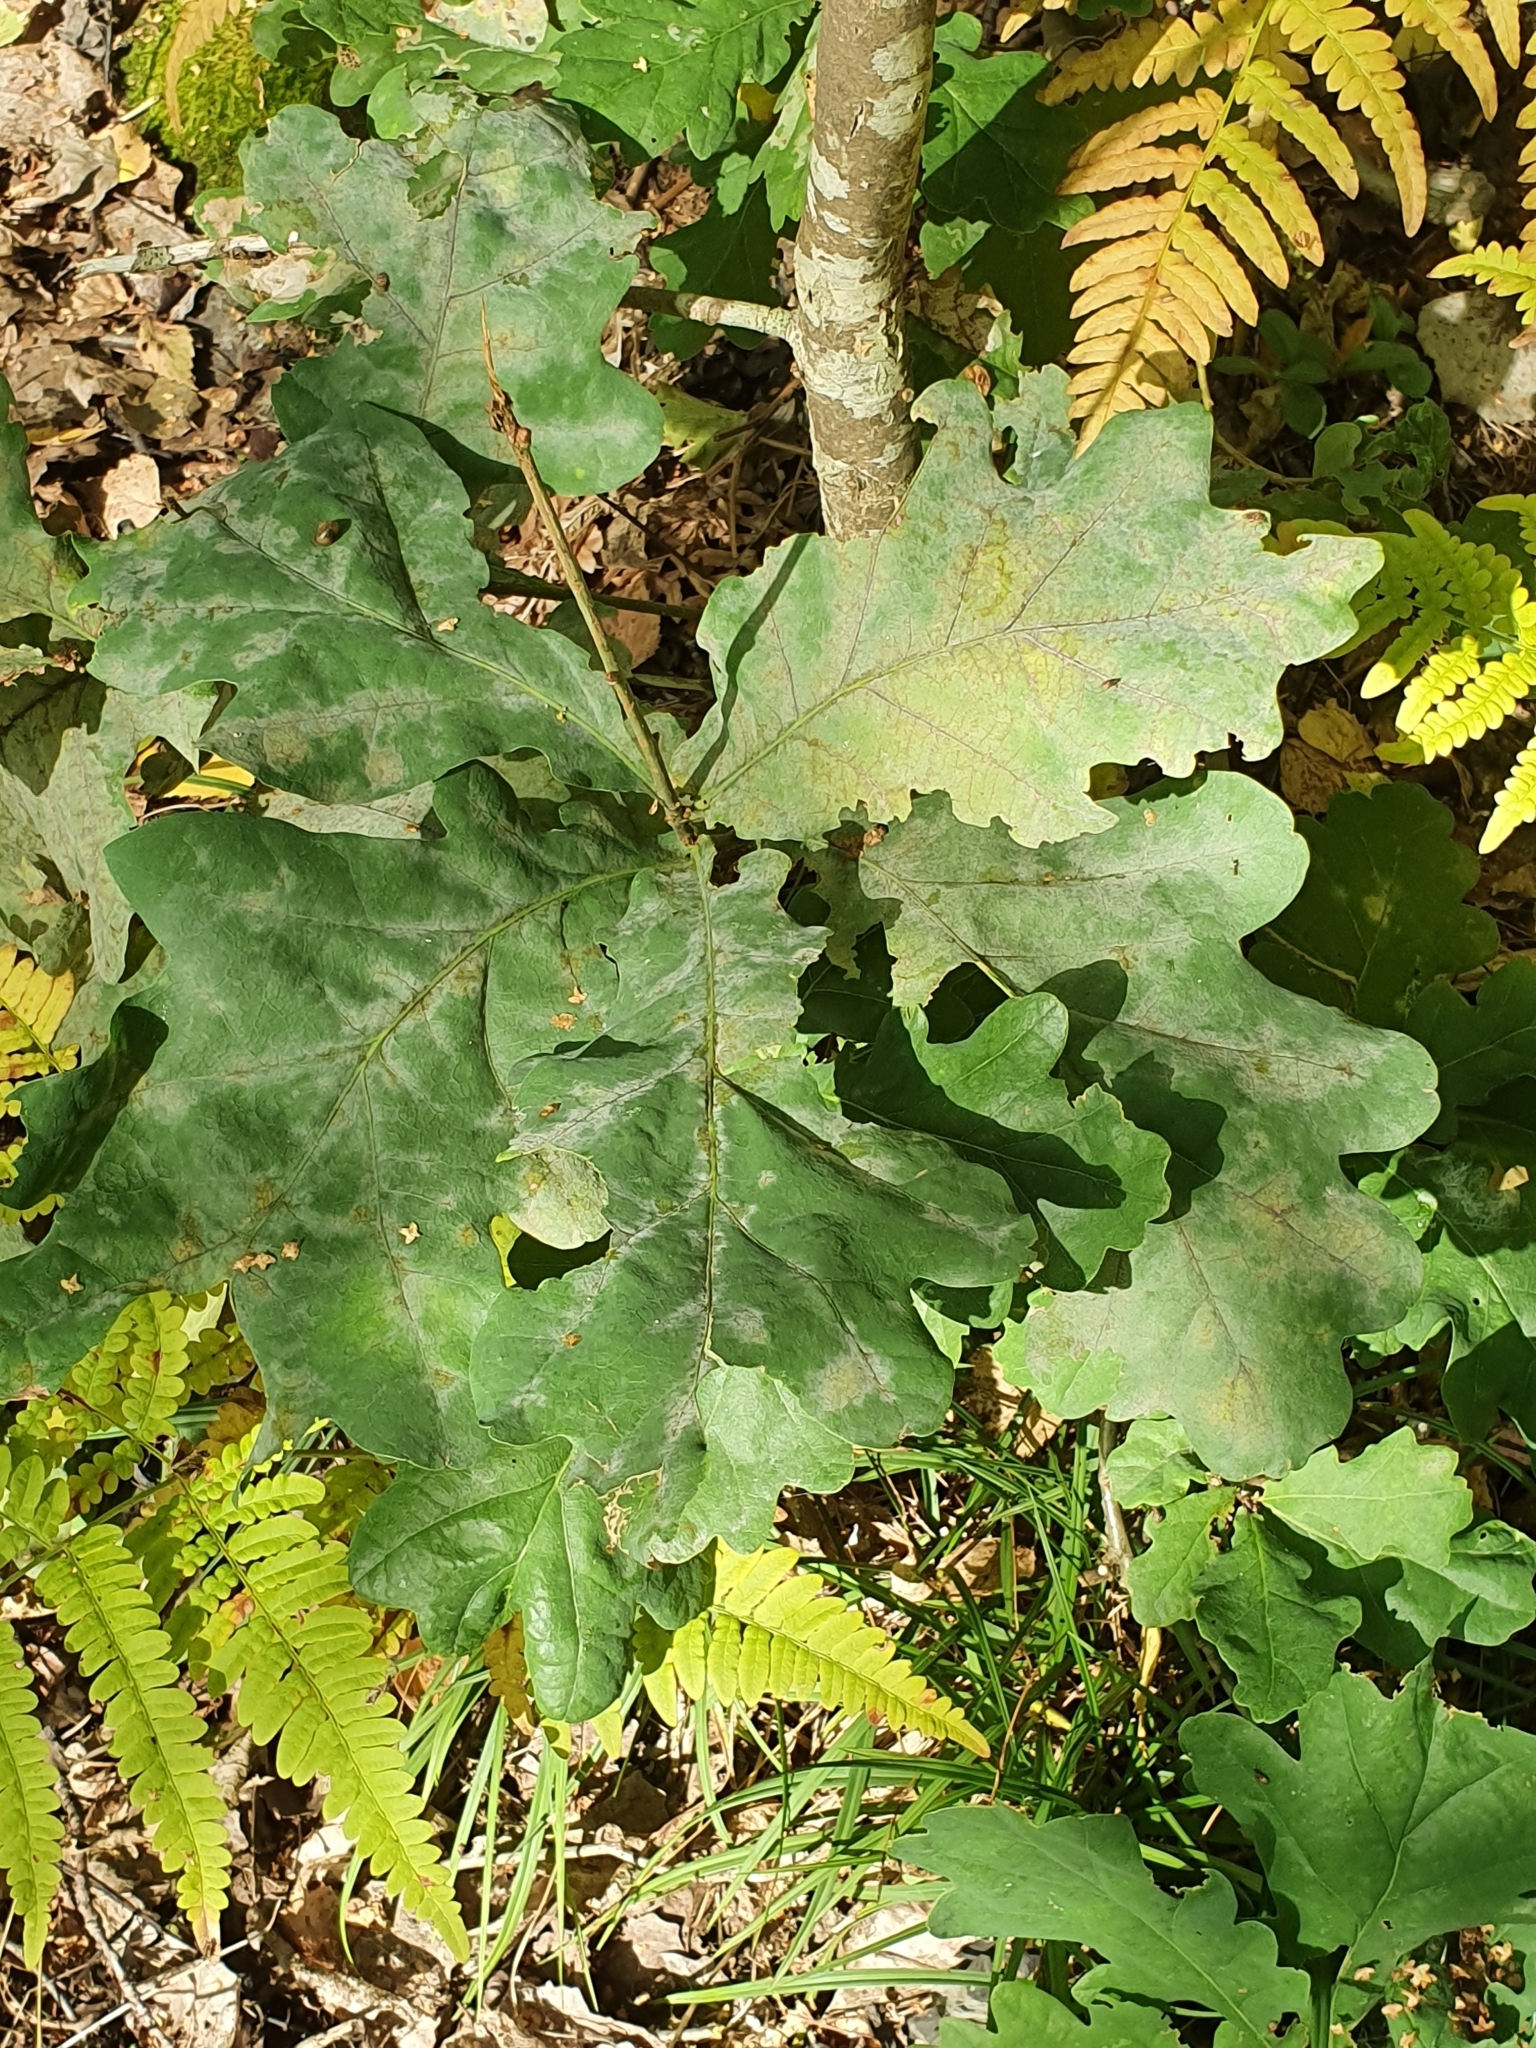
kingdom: Fungi
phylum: Ascomycota
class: Leotiomycetes
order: Helotiales
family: Erysiphaceae
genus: Erysiphe
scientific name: Erysiphe alphitoides
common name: Oak mildew
